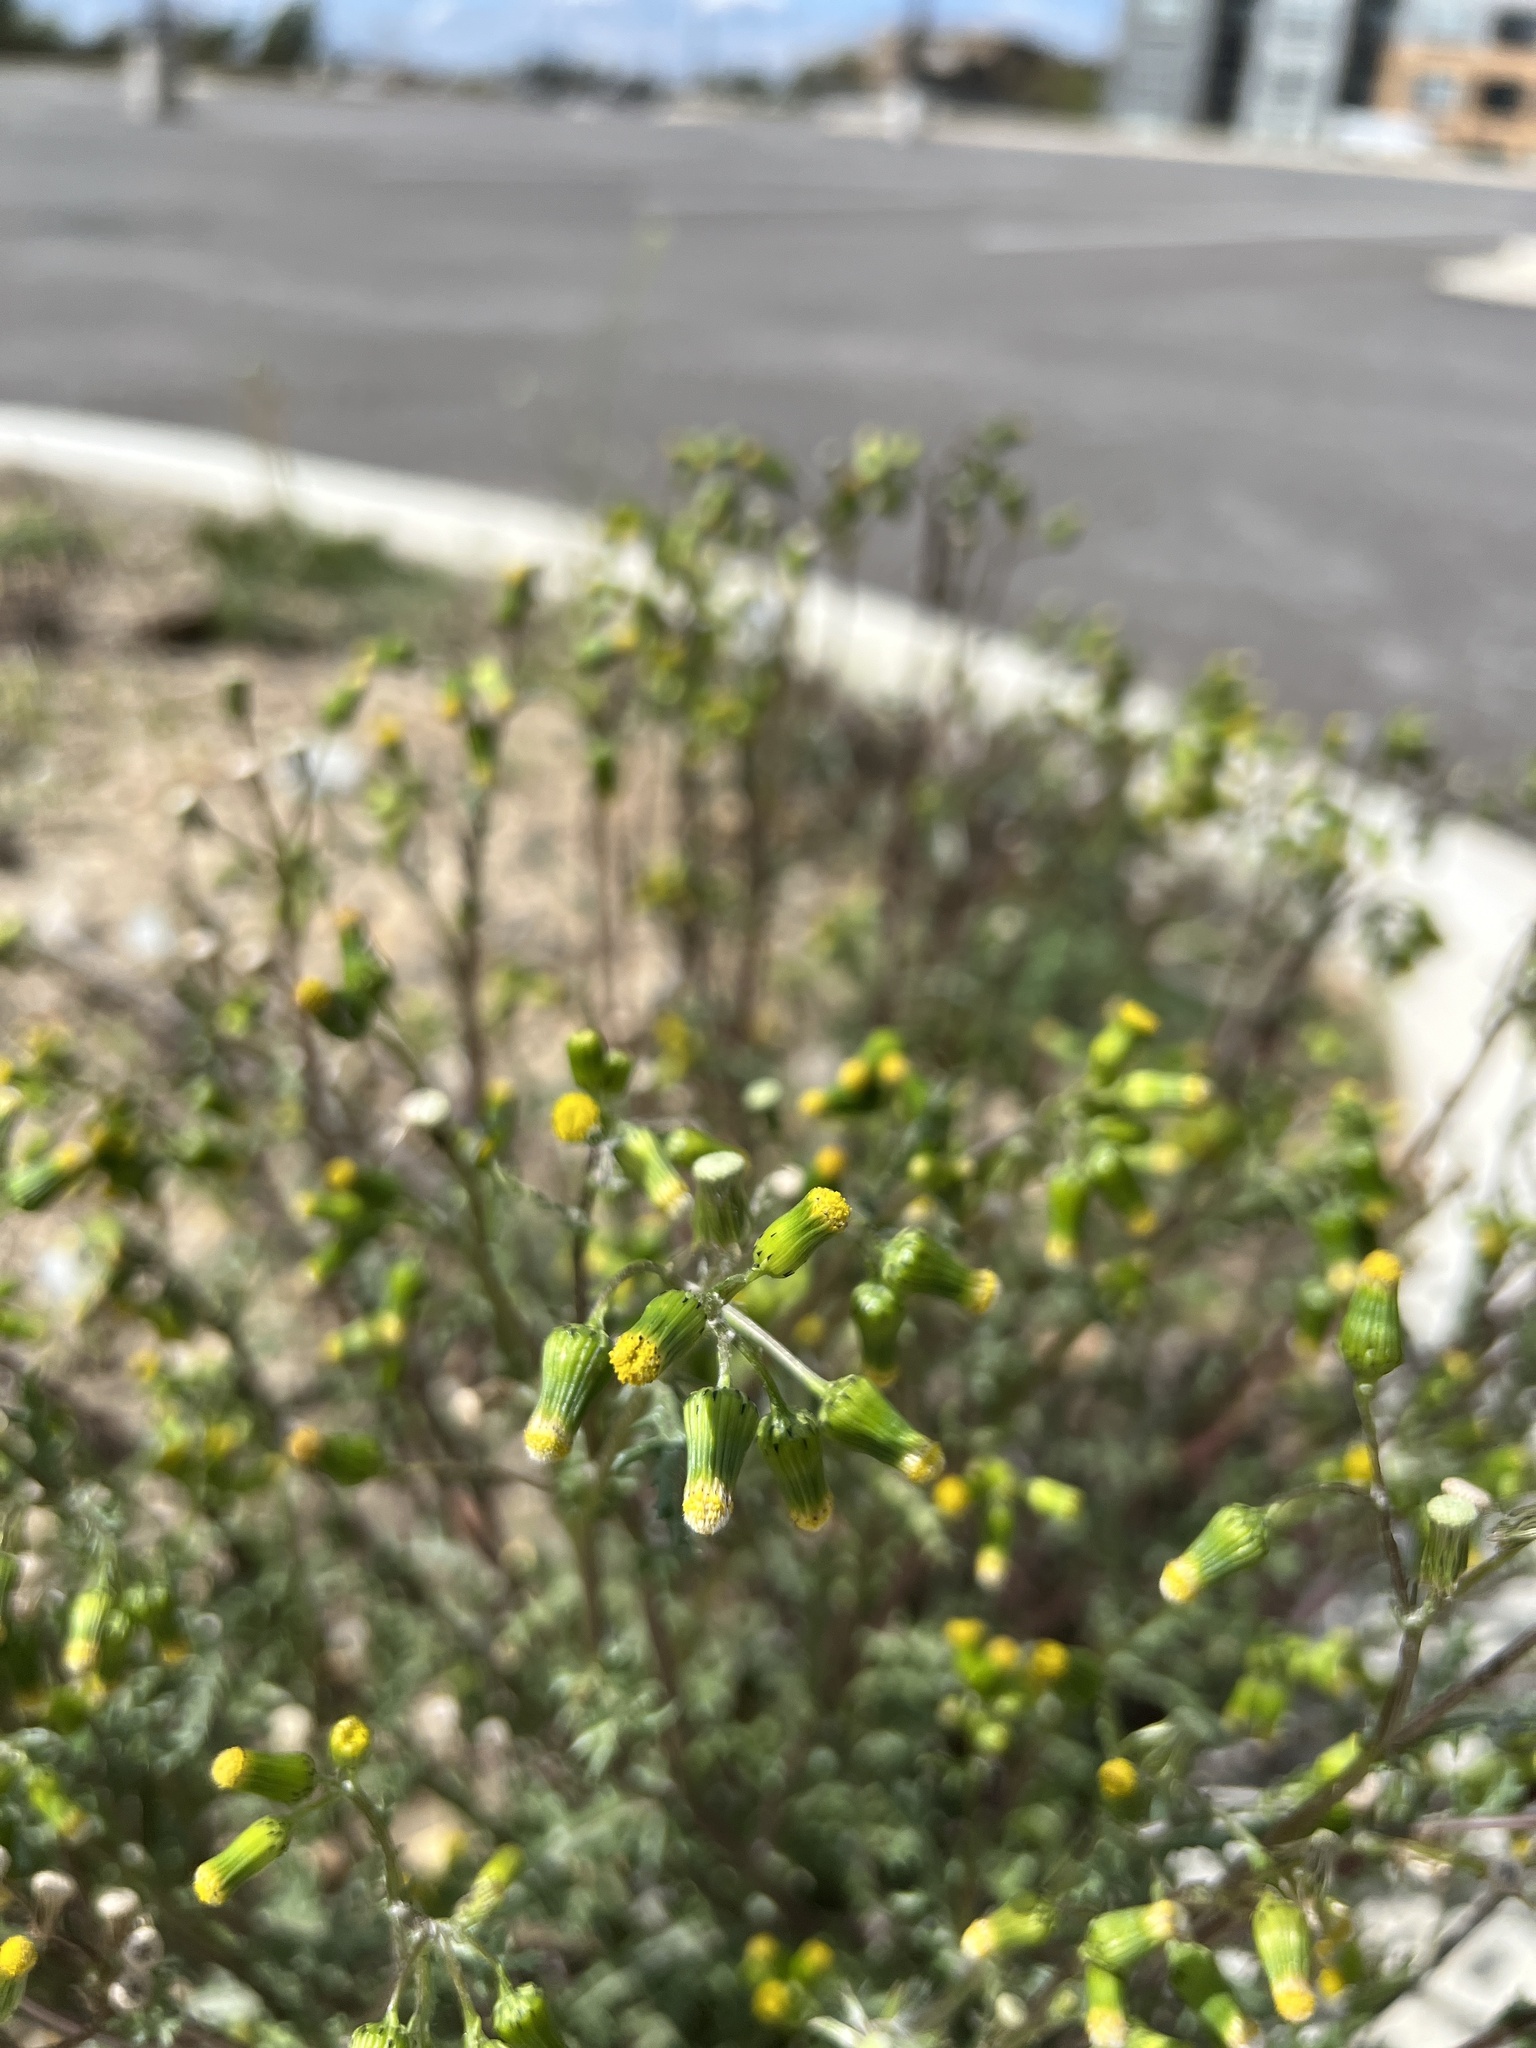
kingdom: Plantae
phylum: Tracheophyta
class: Magnoliopsida
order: Asterales
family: Asteraceae
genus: Senecio
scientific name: Senecio vulgaris
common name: Old-man-in-the-spring
